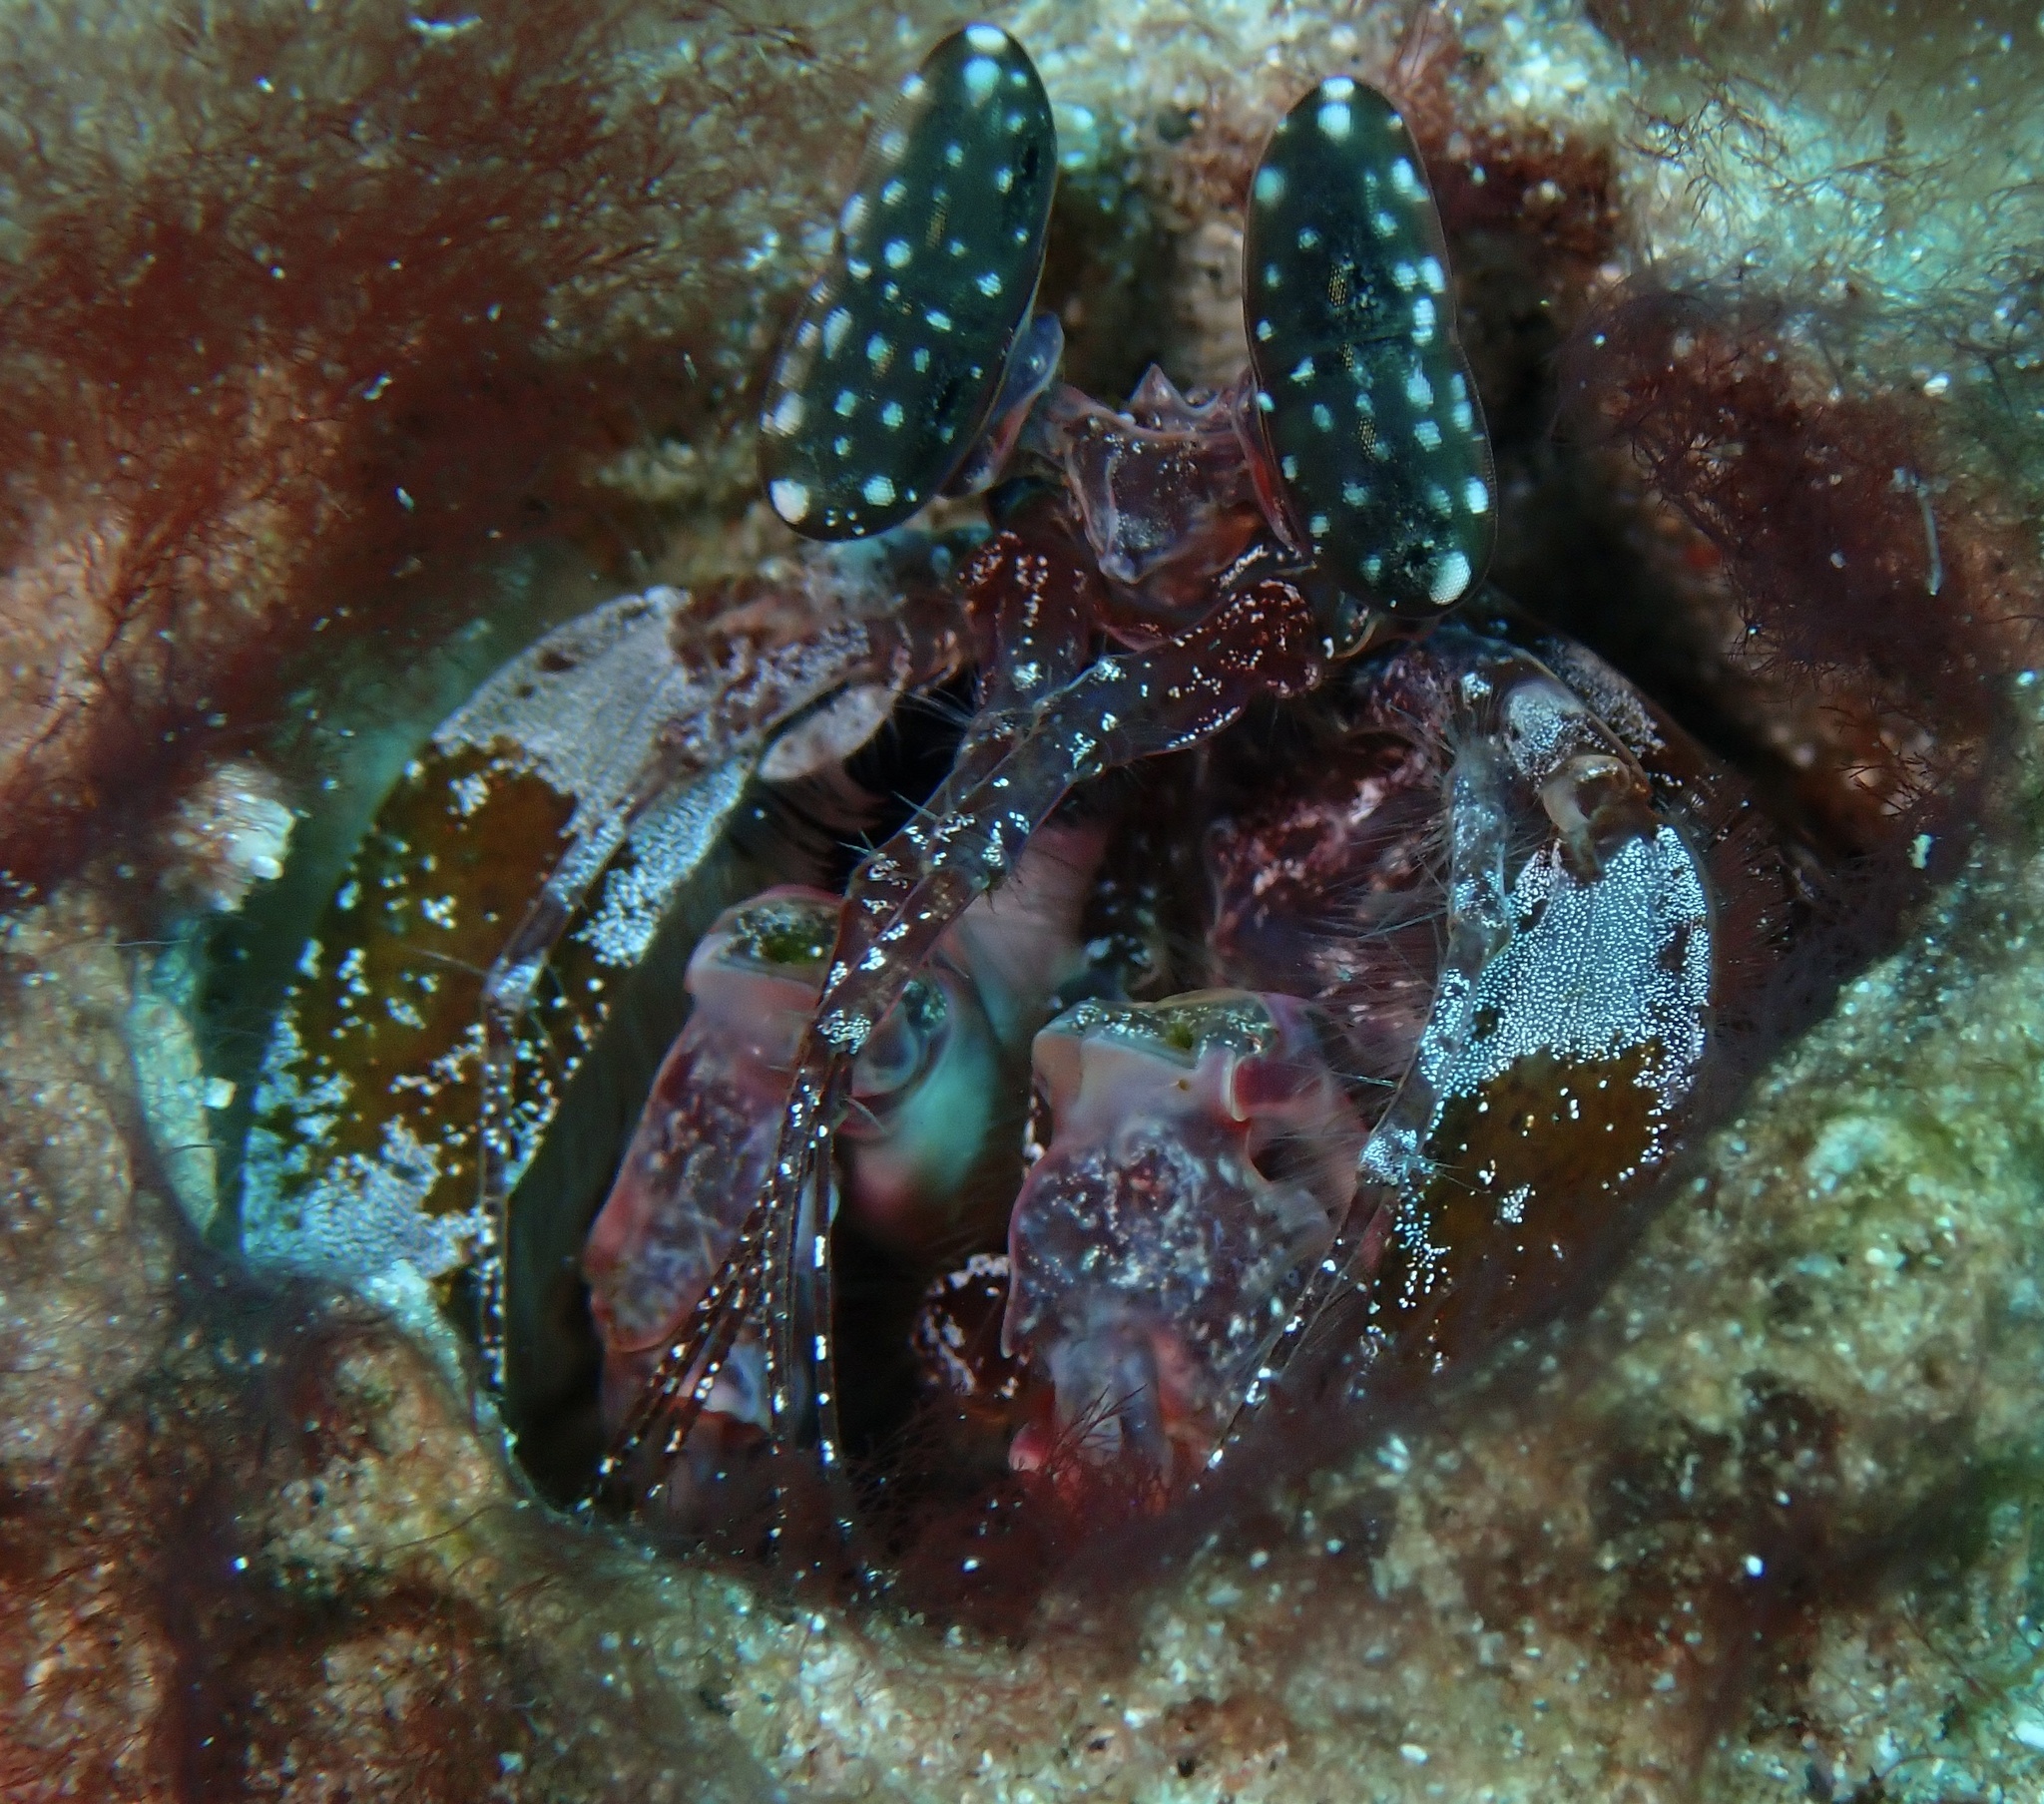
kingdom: Animalia
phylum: Arthropoda
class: Malacostraca
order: Stomatopoda
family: Lysiosquillidae
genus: Lysiosquilla
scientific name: Lysiosquilla lisa
